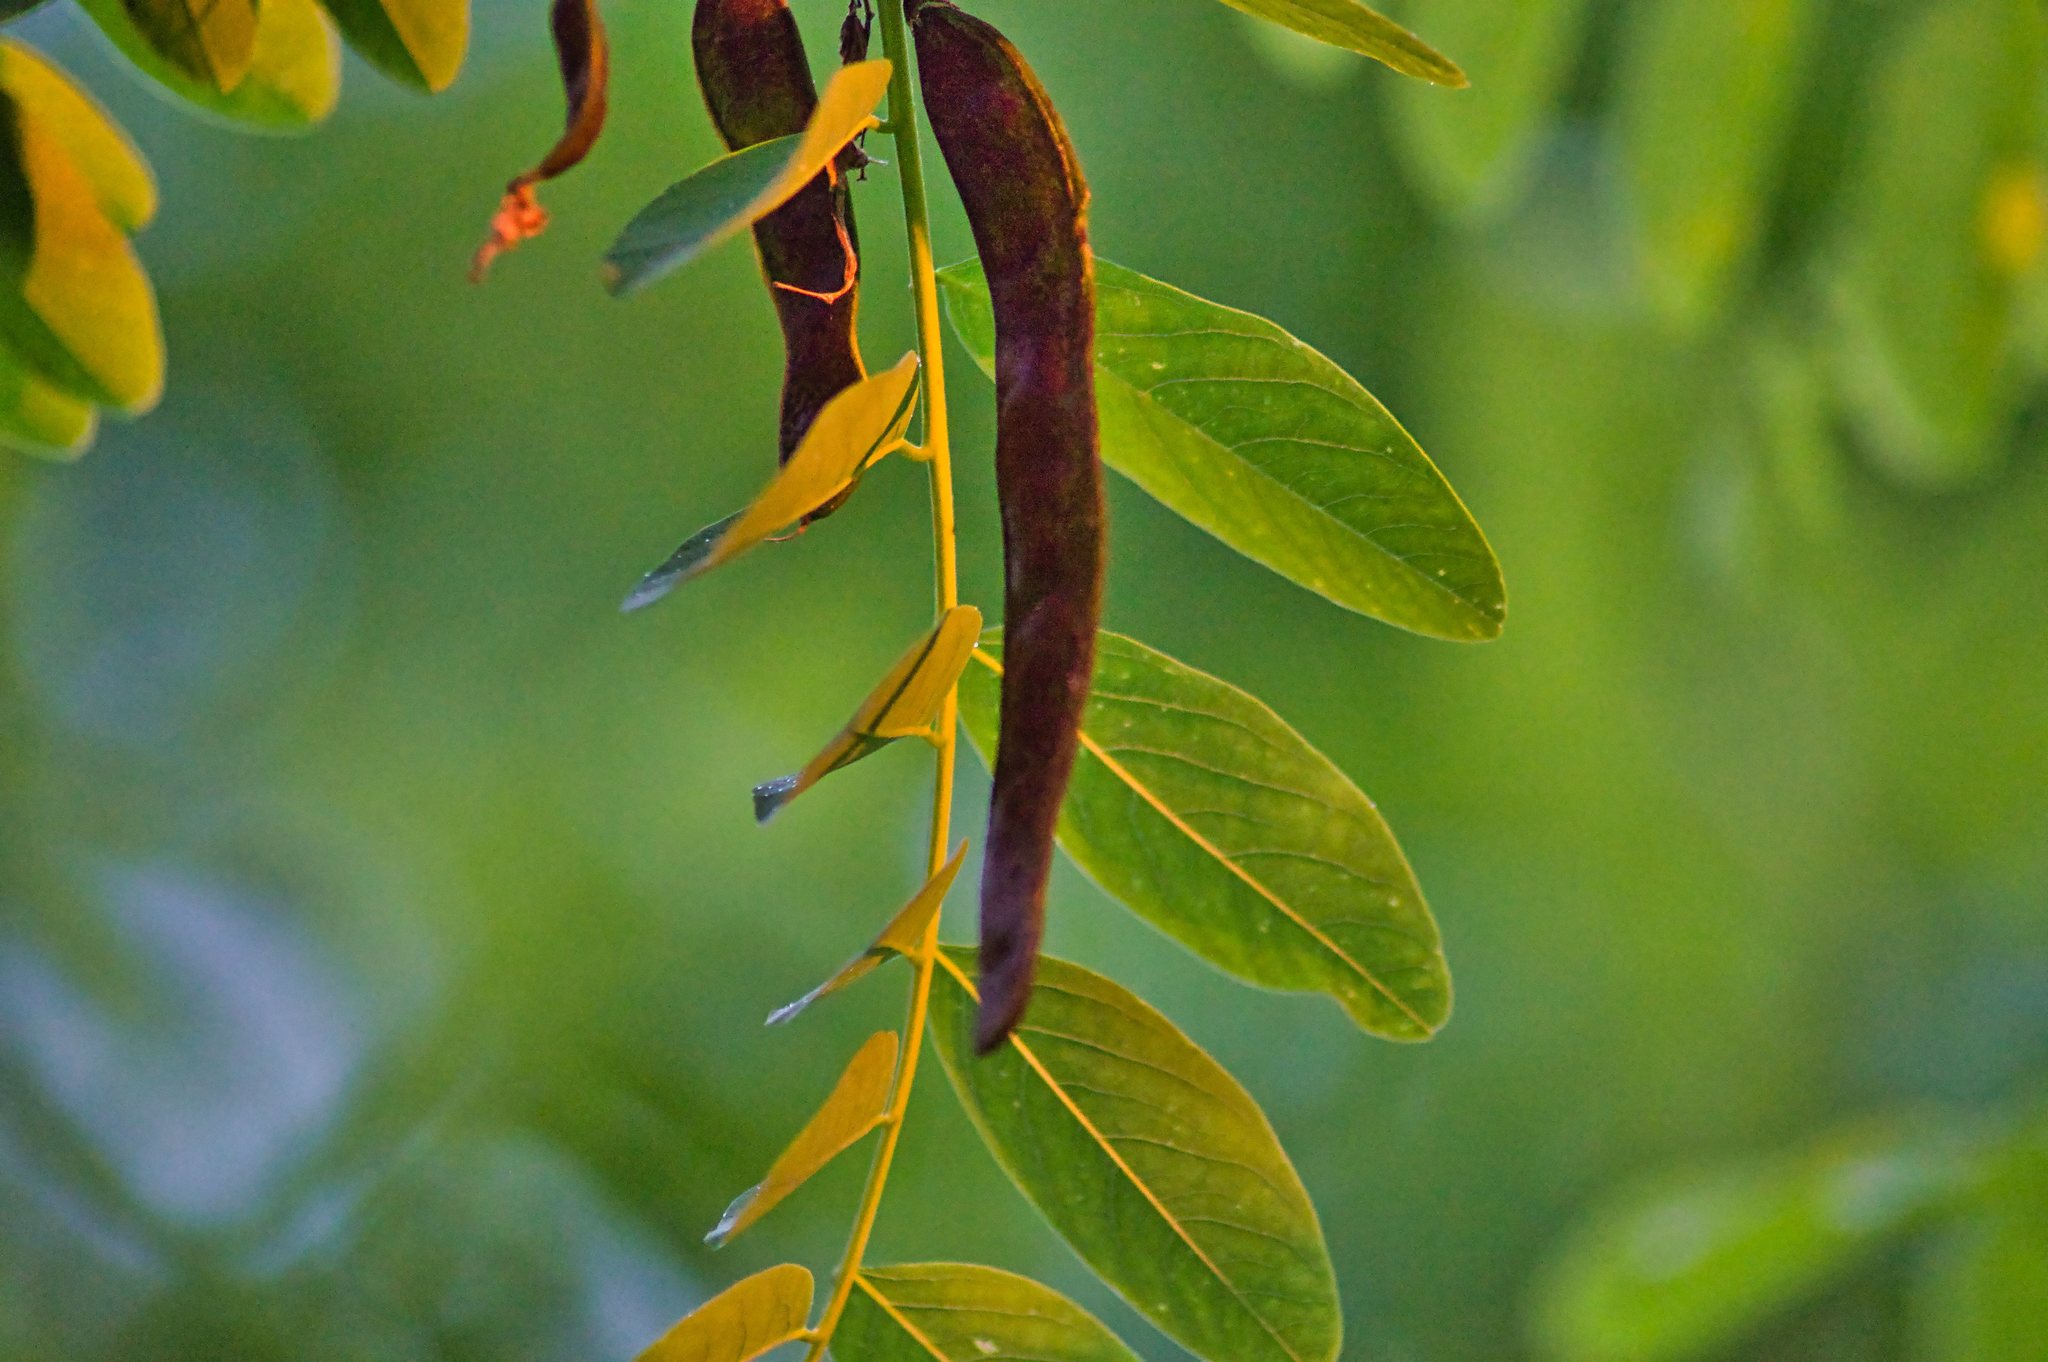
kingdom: Plantae
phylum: Tracheophyta
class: Magnoliopsida
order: Fabales
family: Fabaceae
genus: Robinia
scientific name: Robinia pseudoacacia
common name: Black locust
